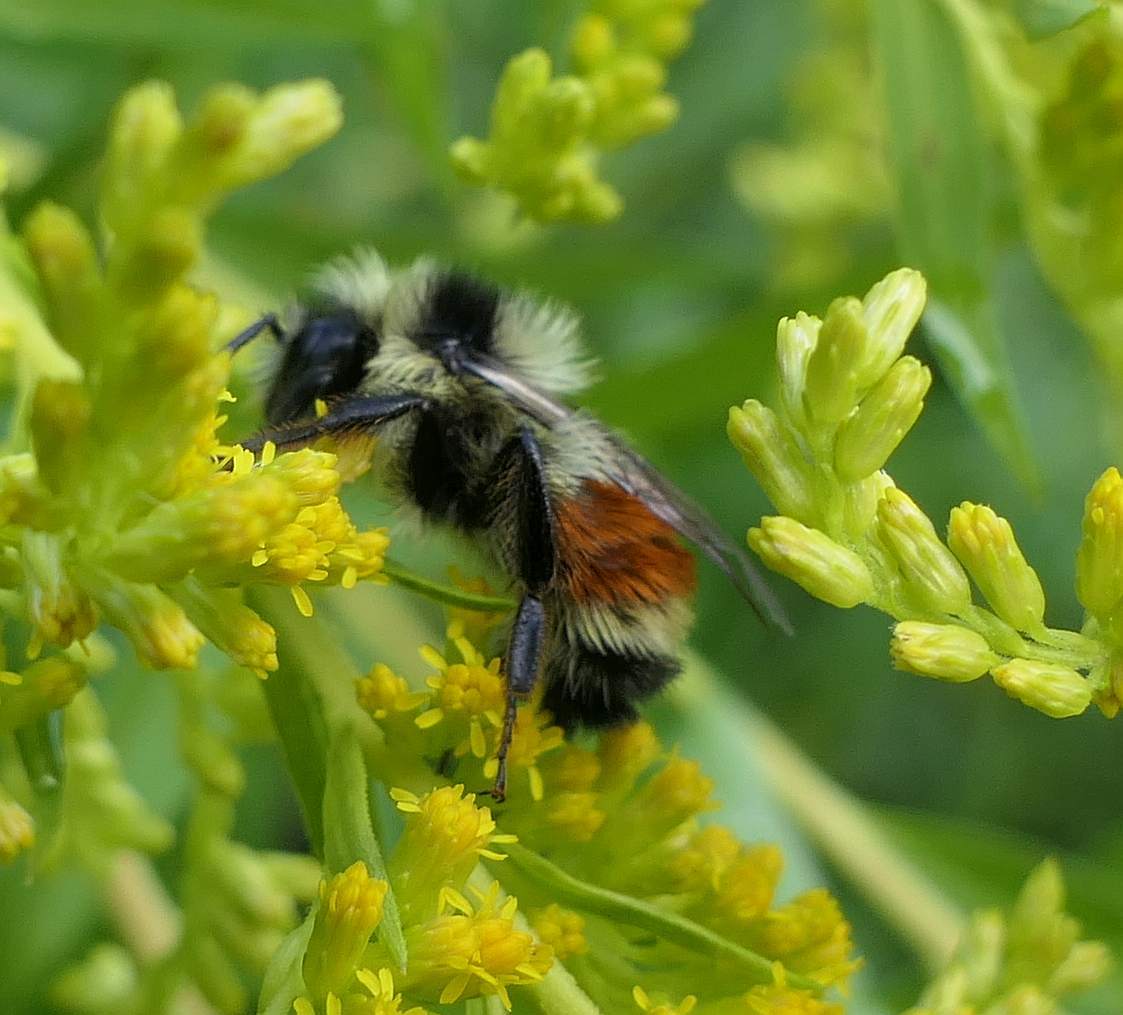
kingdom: Animalia
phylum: Arthropoda
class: Insecta
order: Hymenoptera
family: Apidae
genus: Bombus
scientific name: Bombus ternarius
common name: Tri-colored bumble bee
